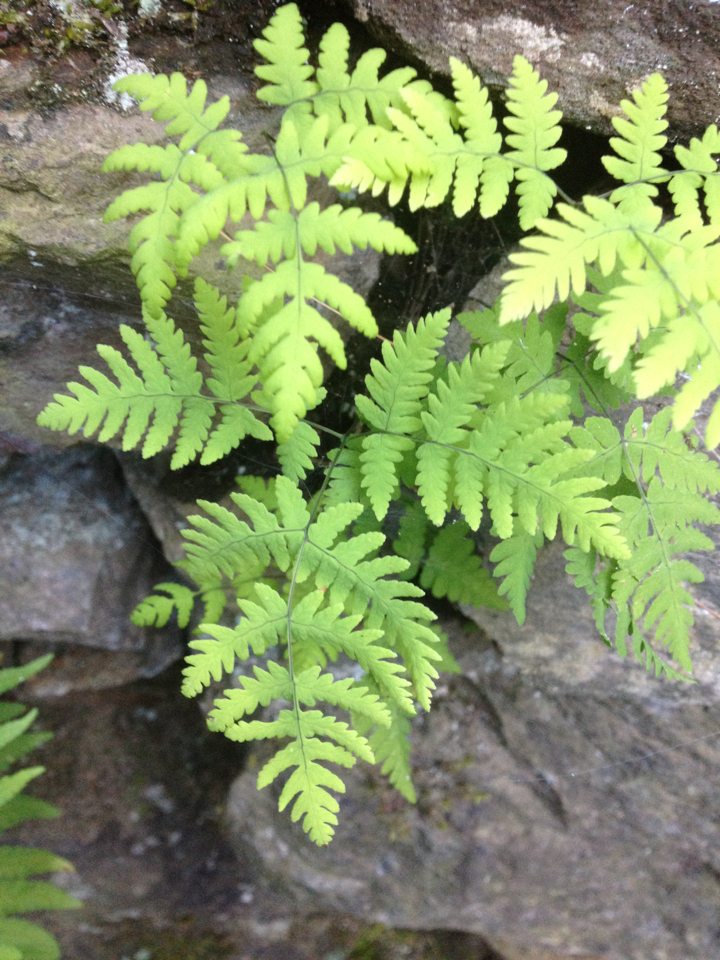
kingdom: Plantae
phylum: Tracheophyta
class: Polypodiopsida
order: Polypodiales
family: Cystopteridaceae
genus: Gymnocarpium
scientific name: Gymnocarpium dryopteris
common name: Oak fern
